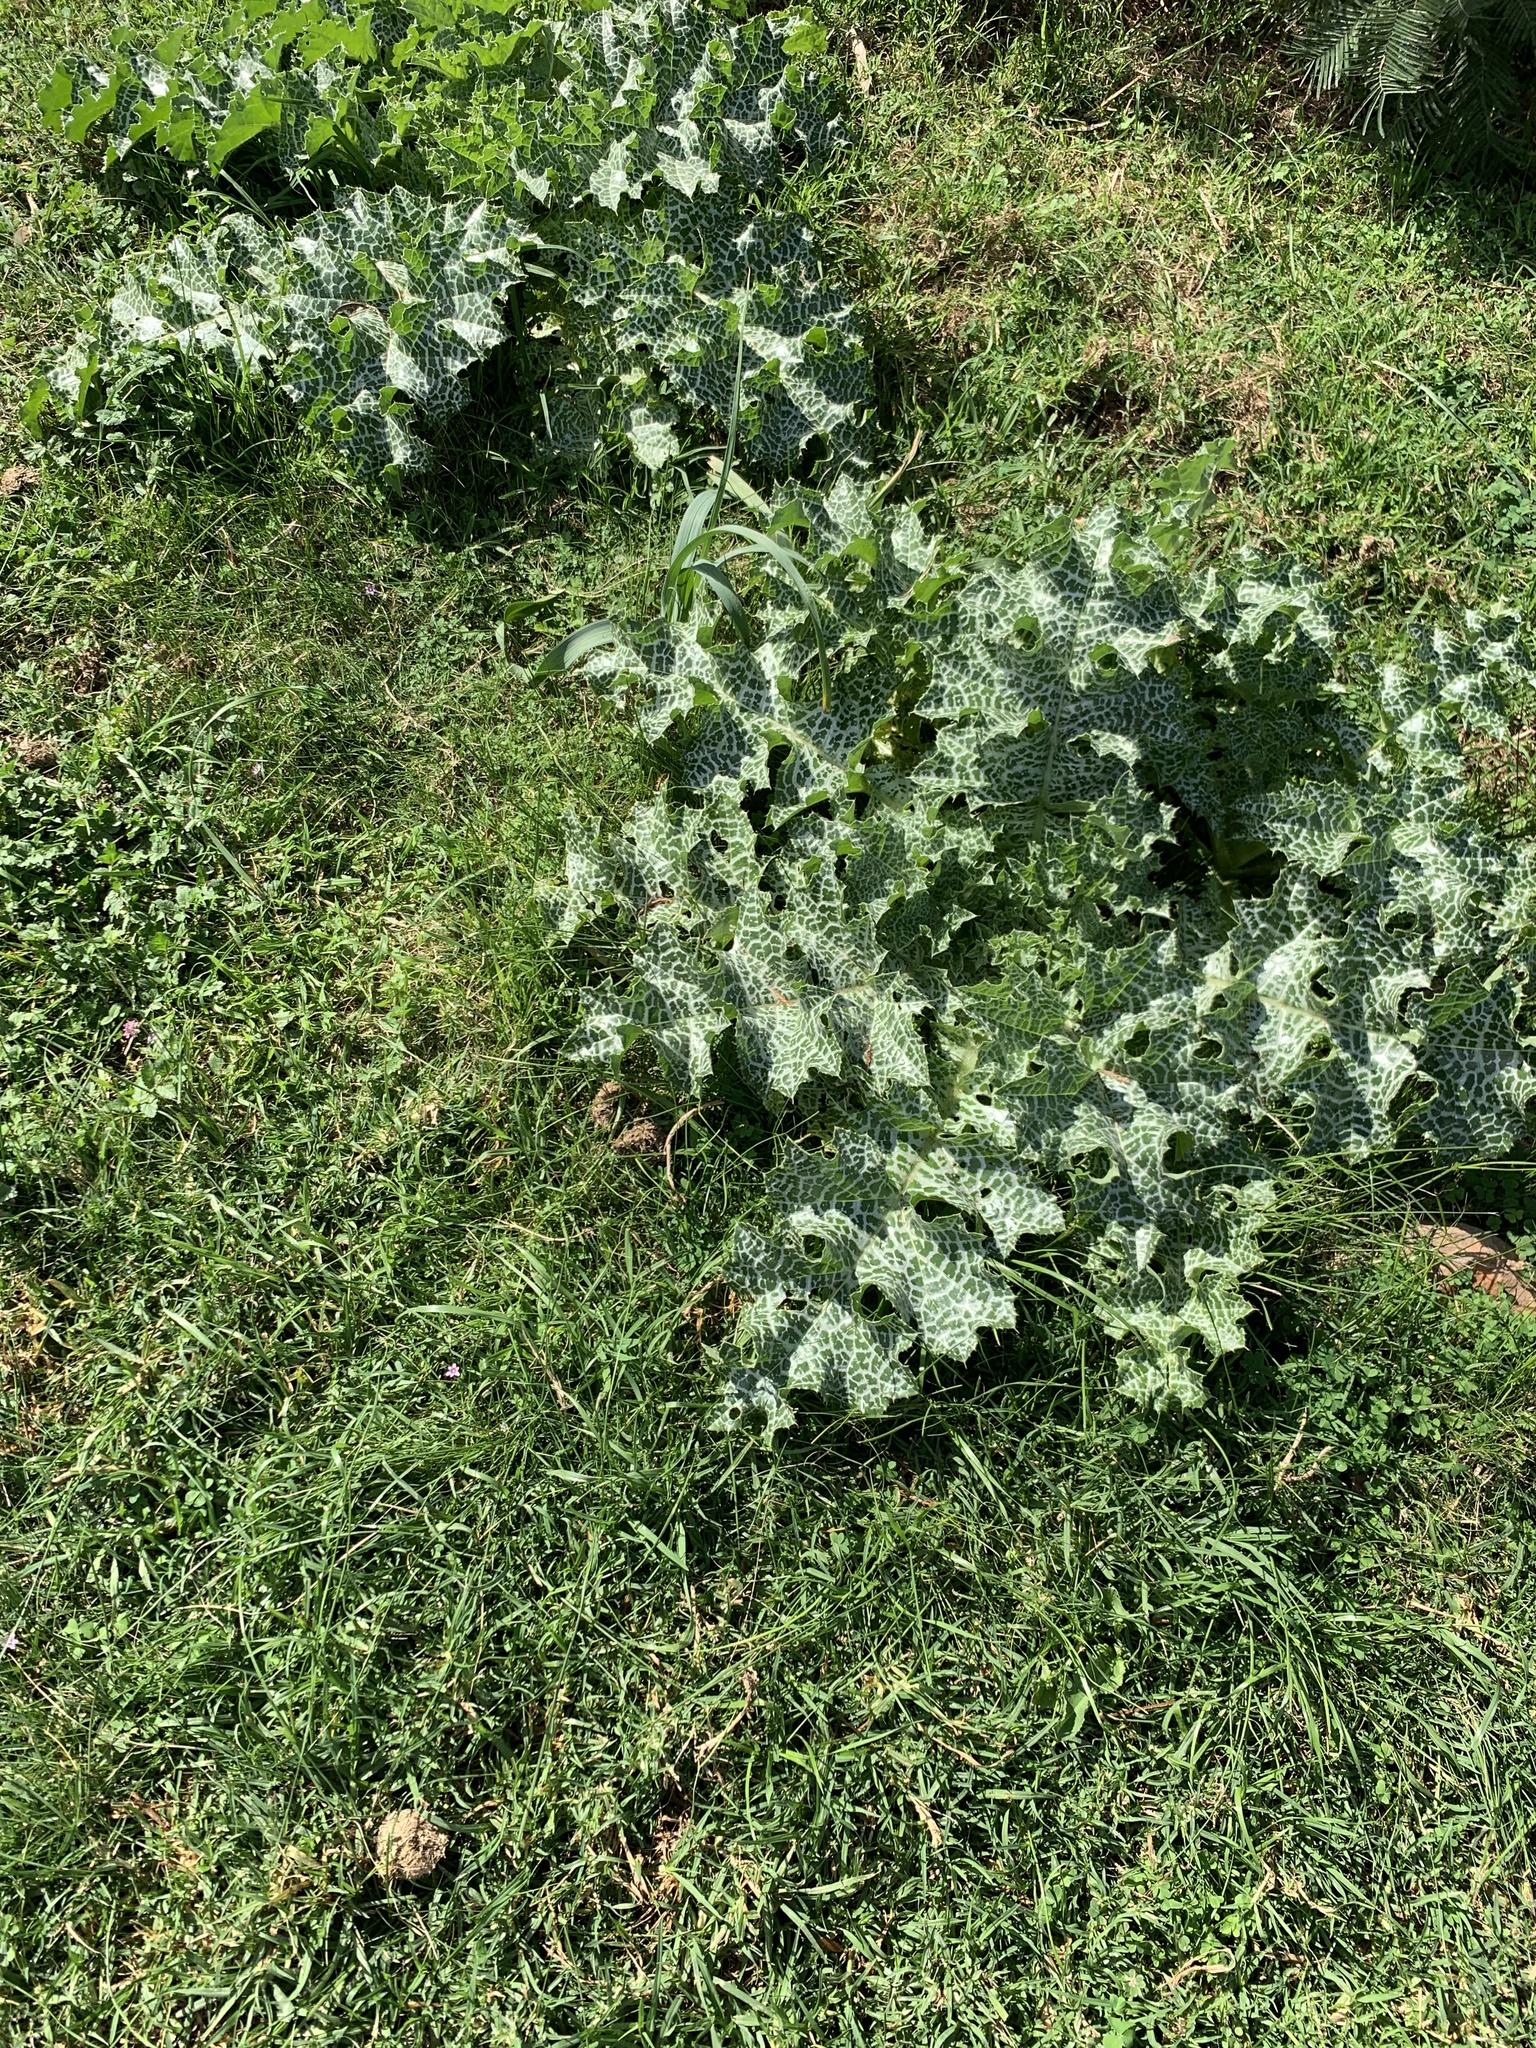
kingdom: Plantae
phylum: Tracheophyta
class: Magnoliopsida
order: Asterales
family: Asteraceae
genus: Silybum
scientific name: Silybum marianum
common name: Milk thistle
